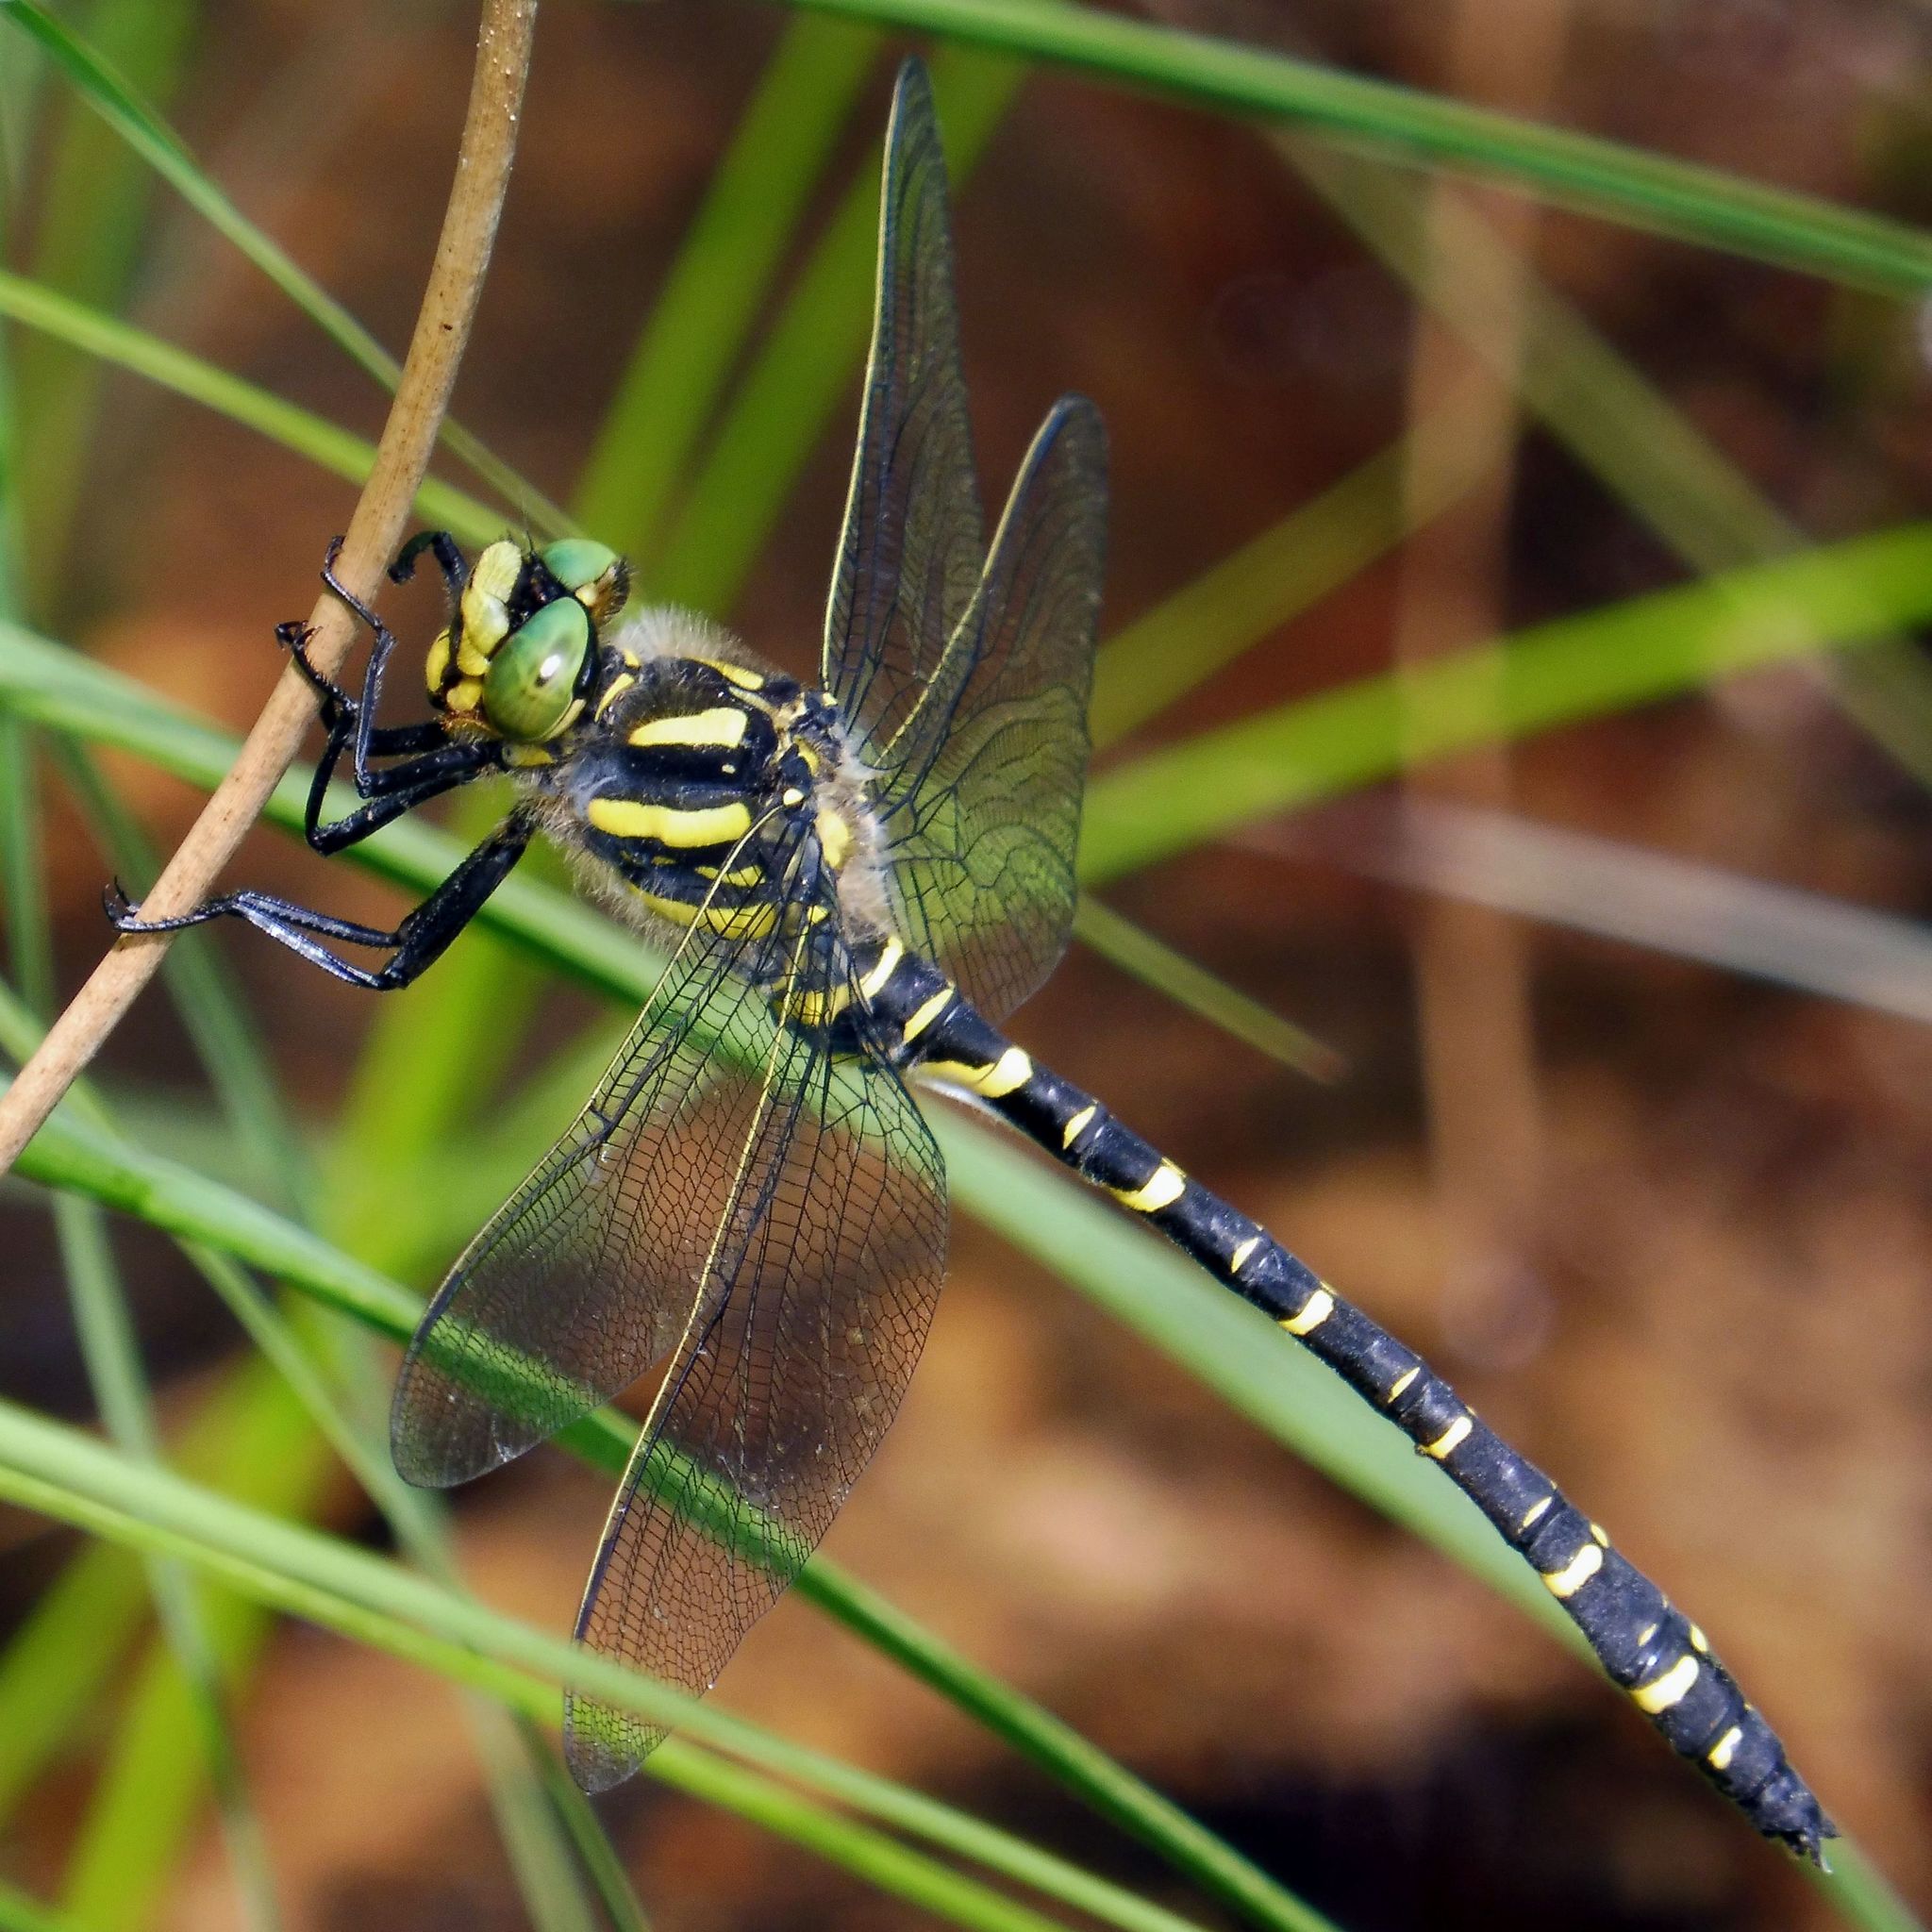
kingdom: Animalia
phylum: Arthropoda
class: Insecta
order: Odonata
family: Cordulegastridae
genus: Cordulegaster
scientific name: Cordulegaster boltonii
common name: Golden-ringed dragonfly
